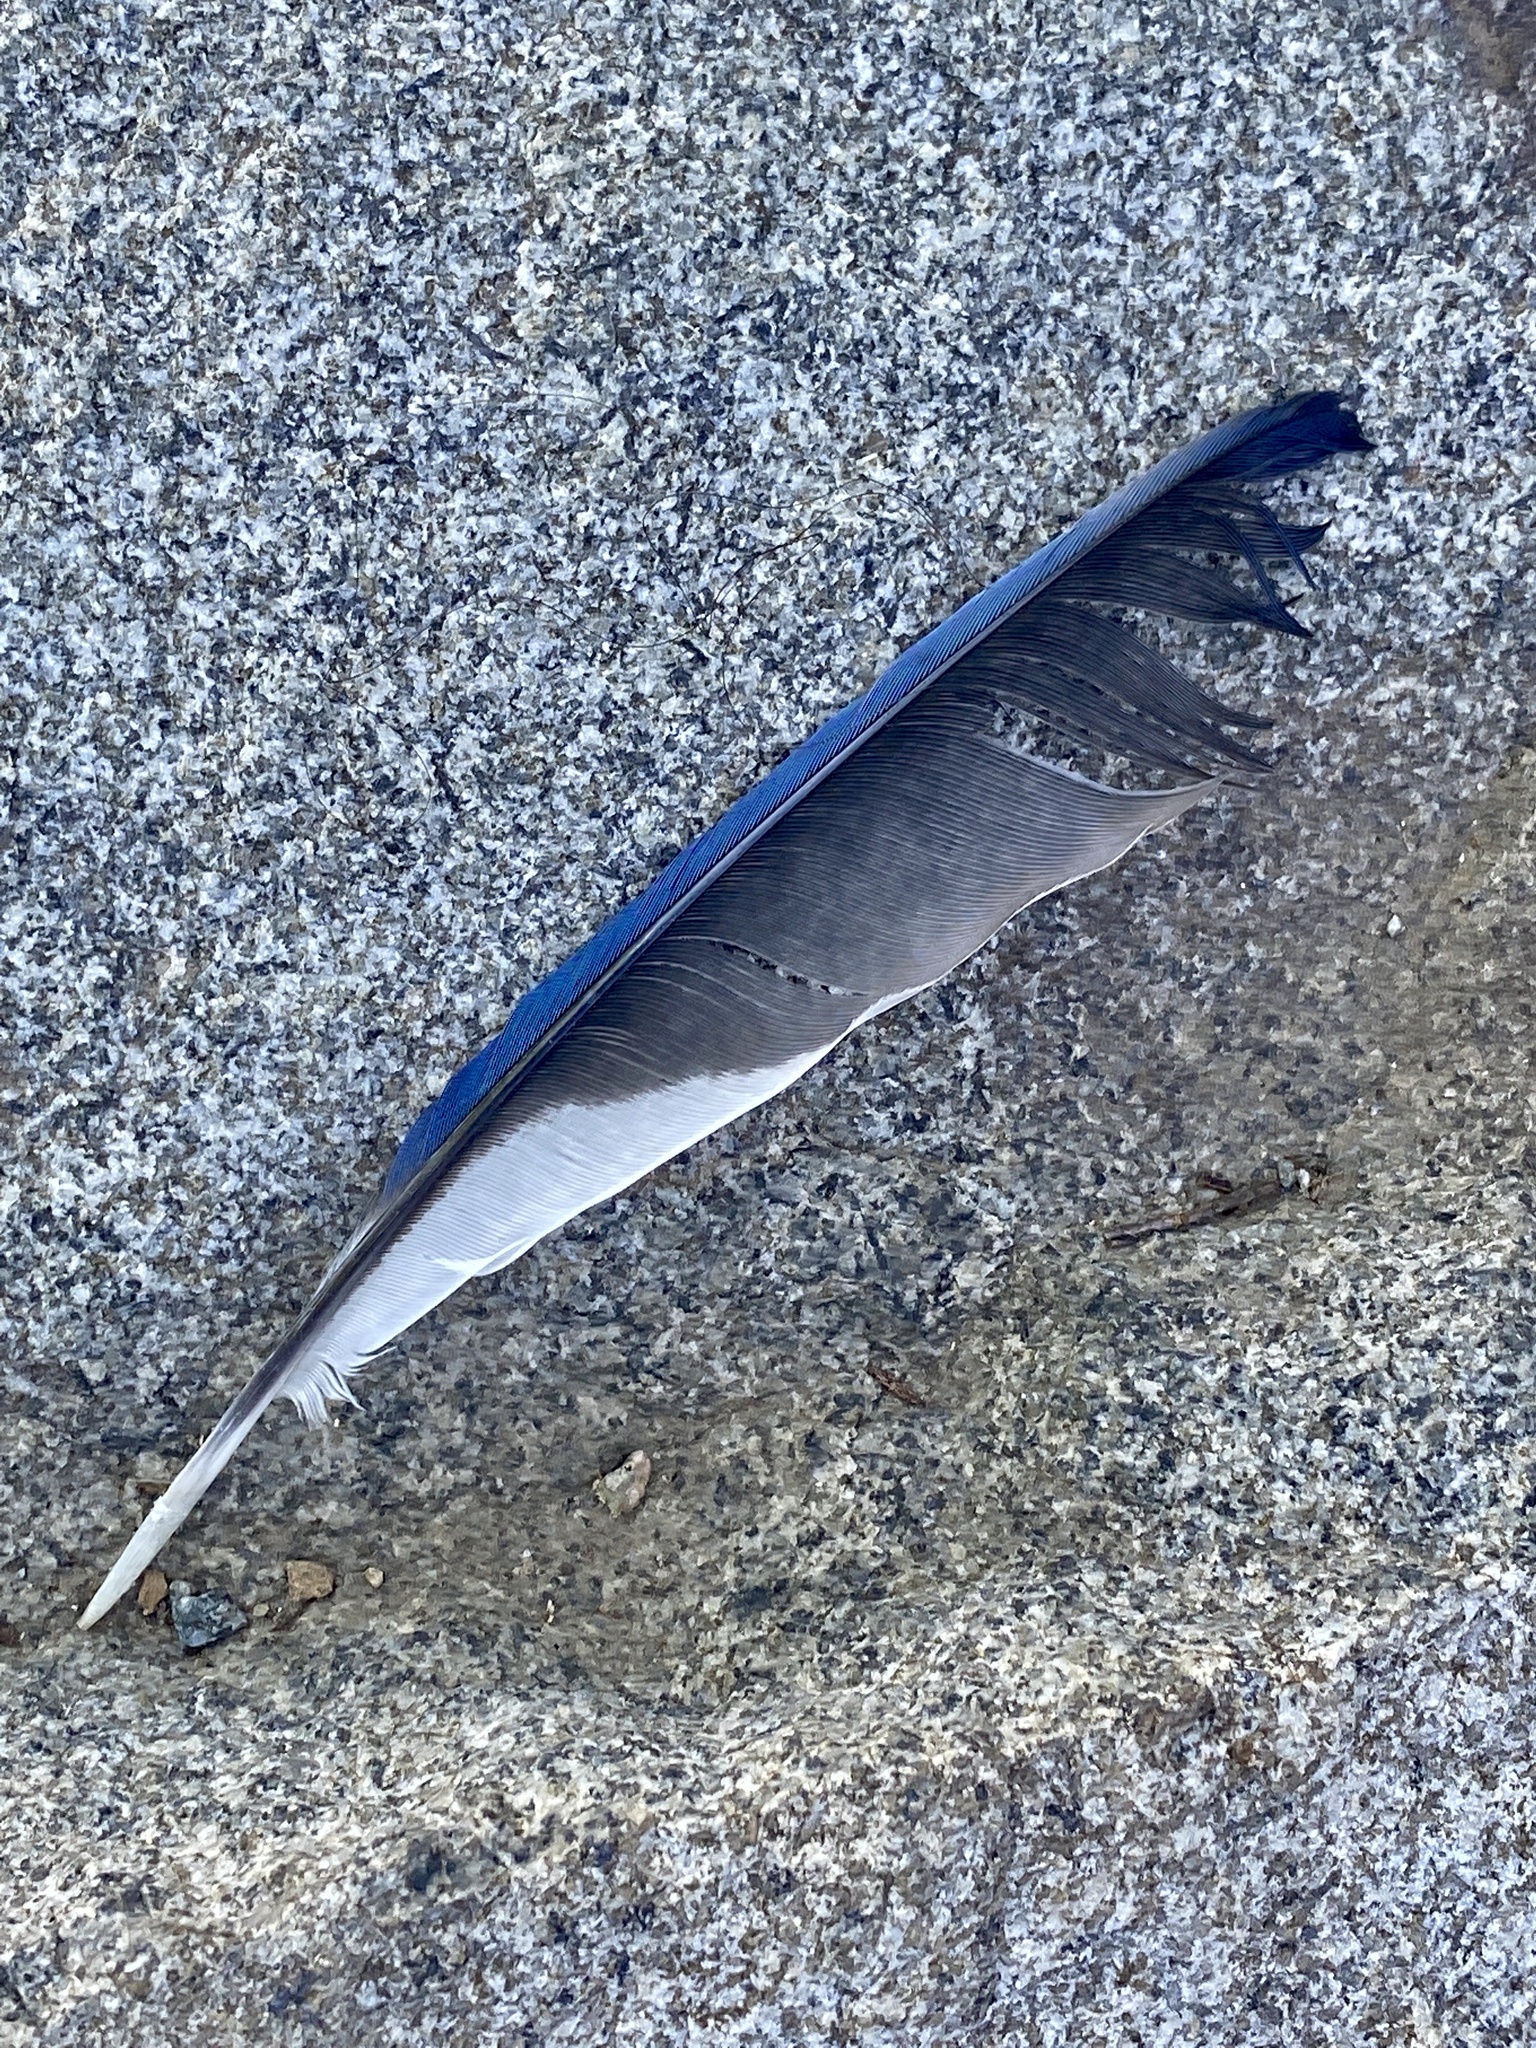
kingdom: Animalia
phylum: Chordata
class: Aves
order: Passeriformes
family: Corvidae
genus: Cyanocitta
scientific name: Cyanocitta cristata
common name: Blue jay
